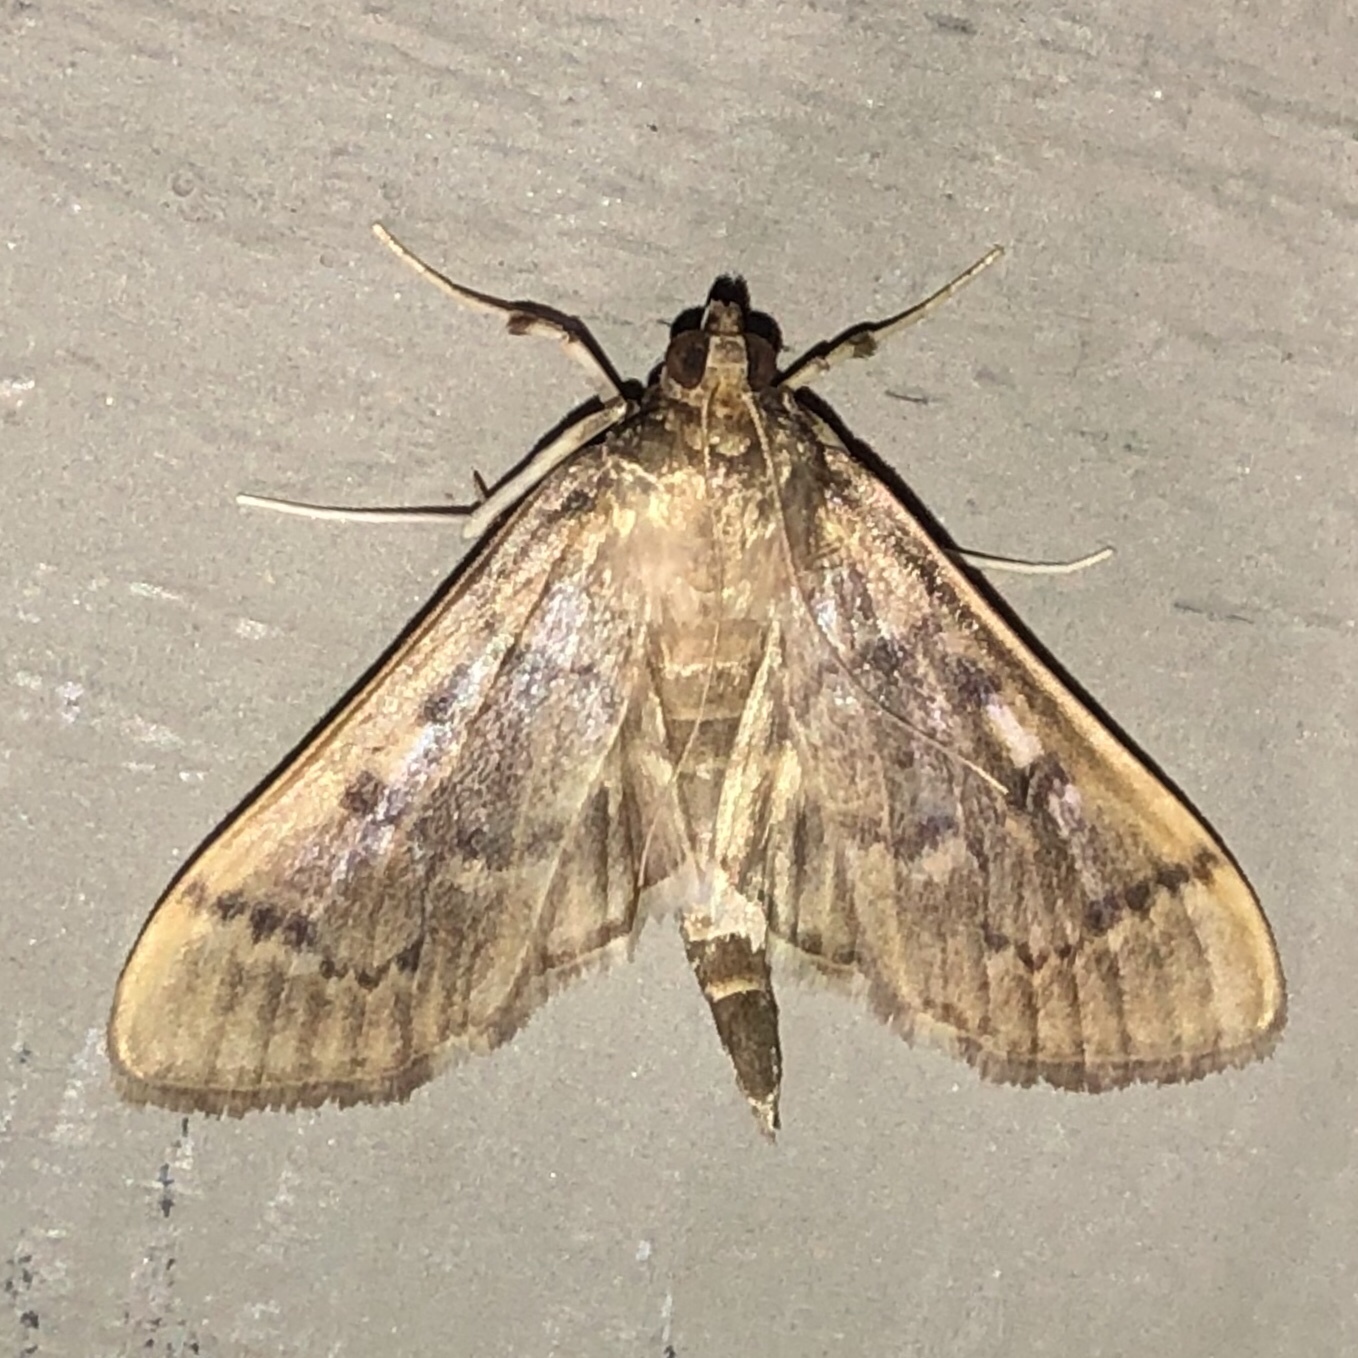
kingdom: Animalia
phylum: Arthropoda
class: Insecta
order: Lepidoptera
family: Crambidae
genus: Herpetogramma
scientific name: Herpetogramma aeglealis
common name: Serpentine webworm moth
